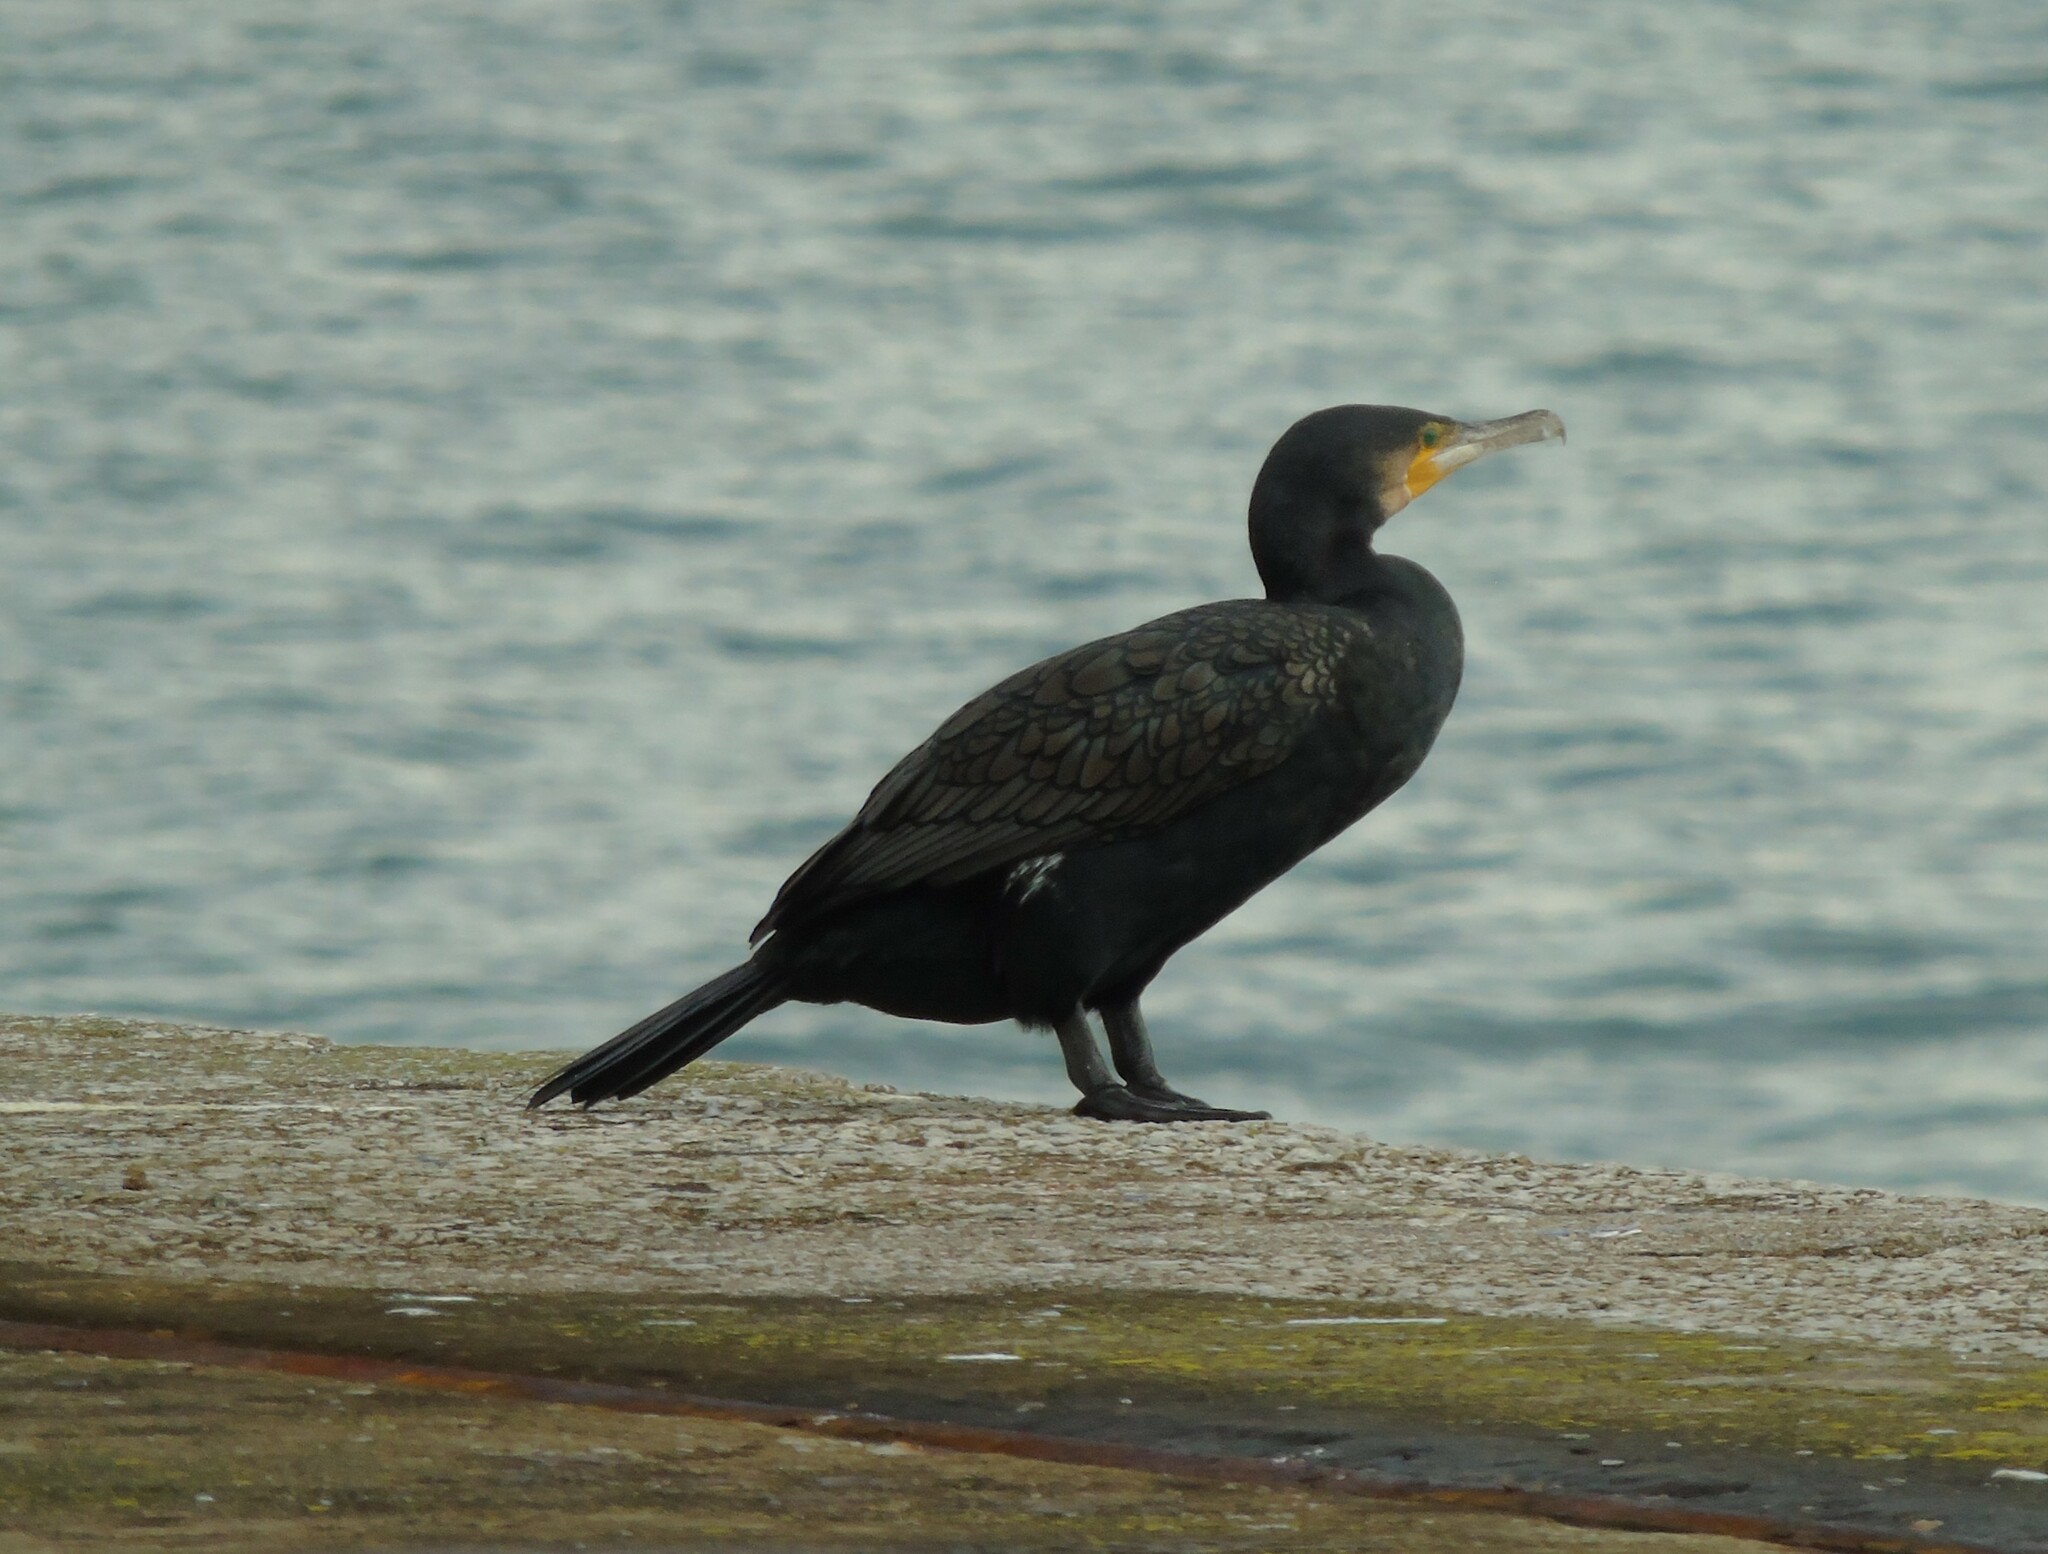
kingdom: Animalia
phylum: Chordata
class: Aves
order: Suliformes
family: Phalacrocoracidae
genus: Phalacrocorax
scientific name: Phalacrocorax carbo
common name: Great cormorant
